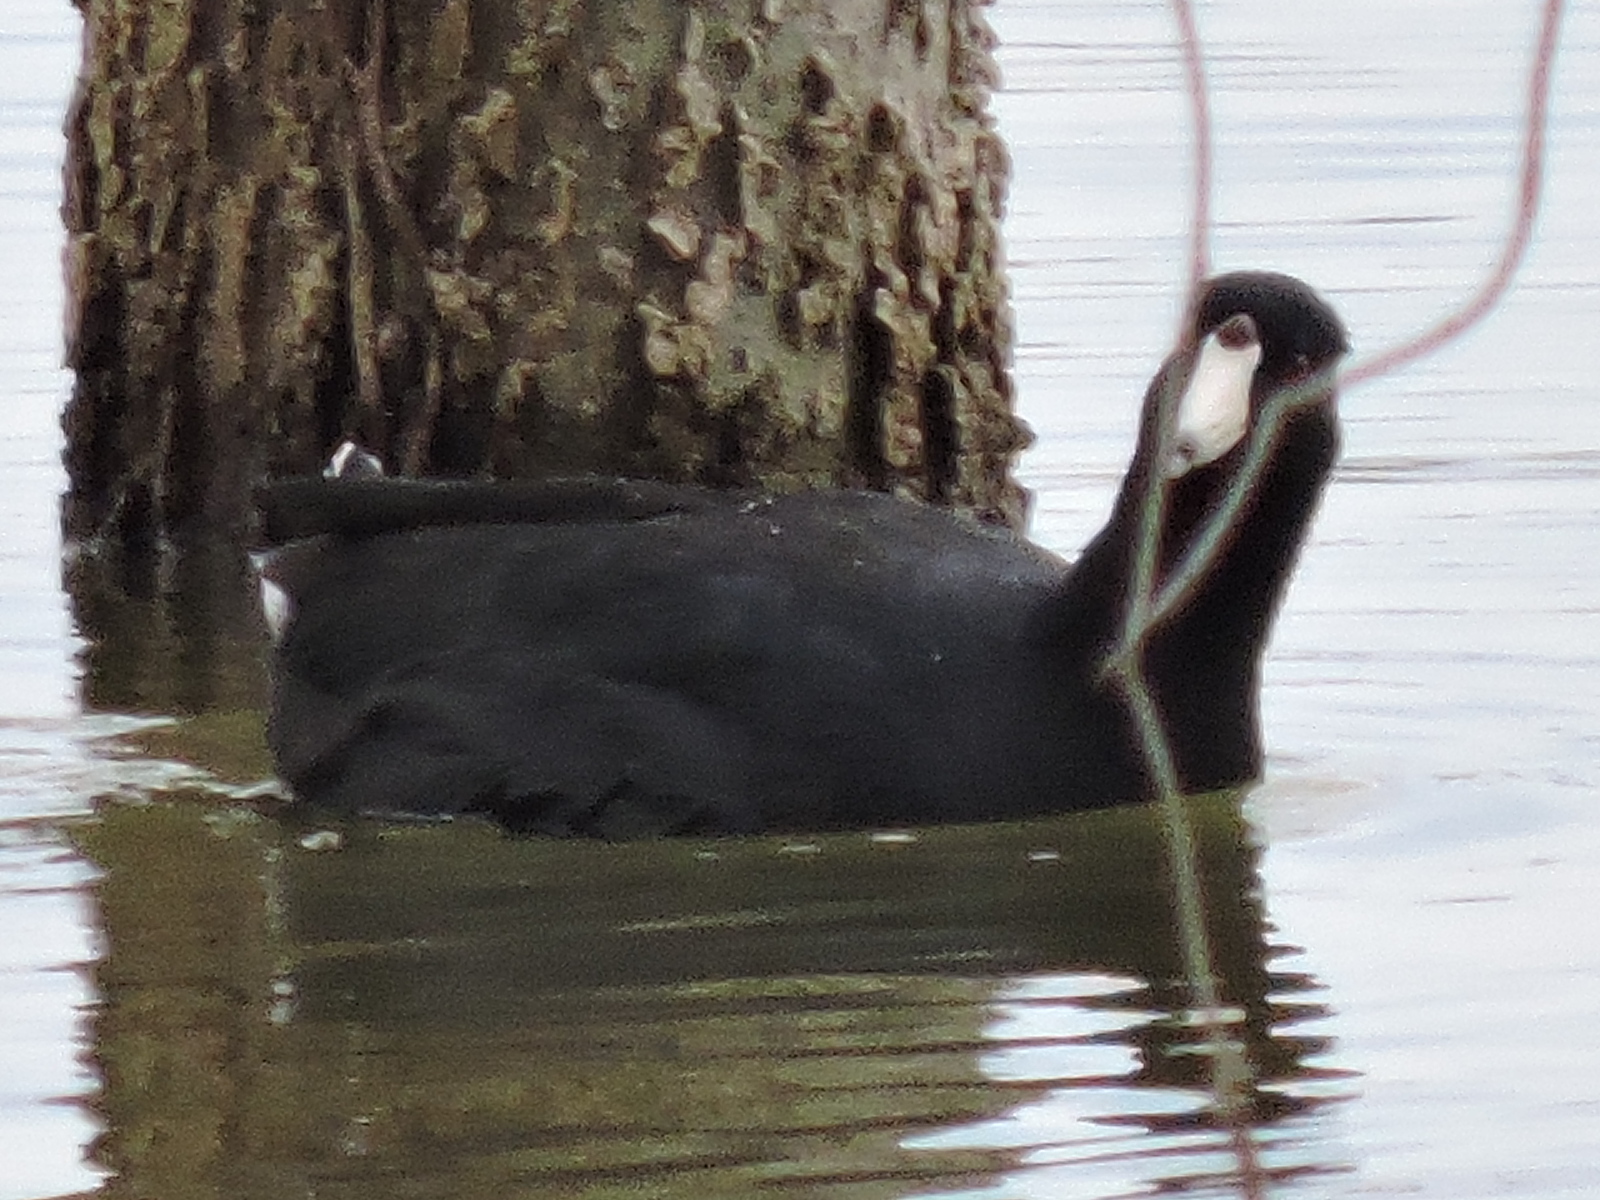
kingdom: Animalia
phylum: Chordata
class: Aves
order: Gruiformes
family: Rallidae
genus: Fulica
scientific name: Fulica americana
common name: American coot
